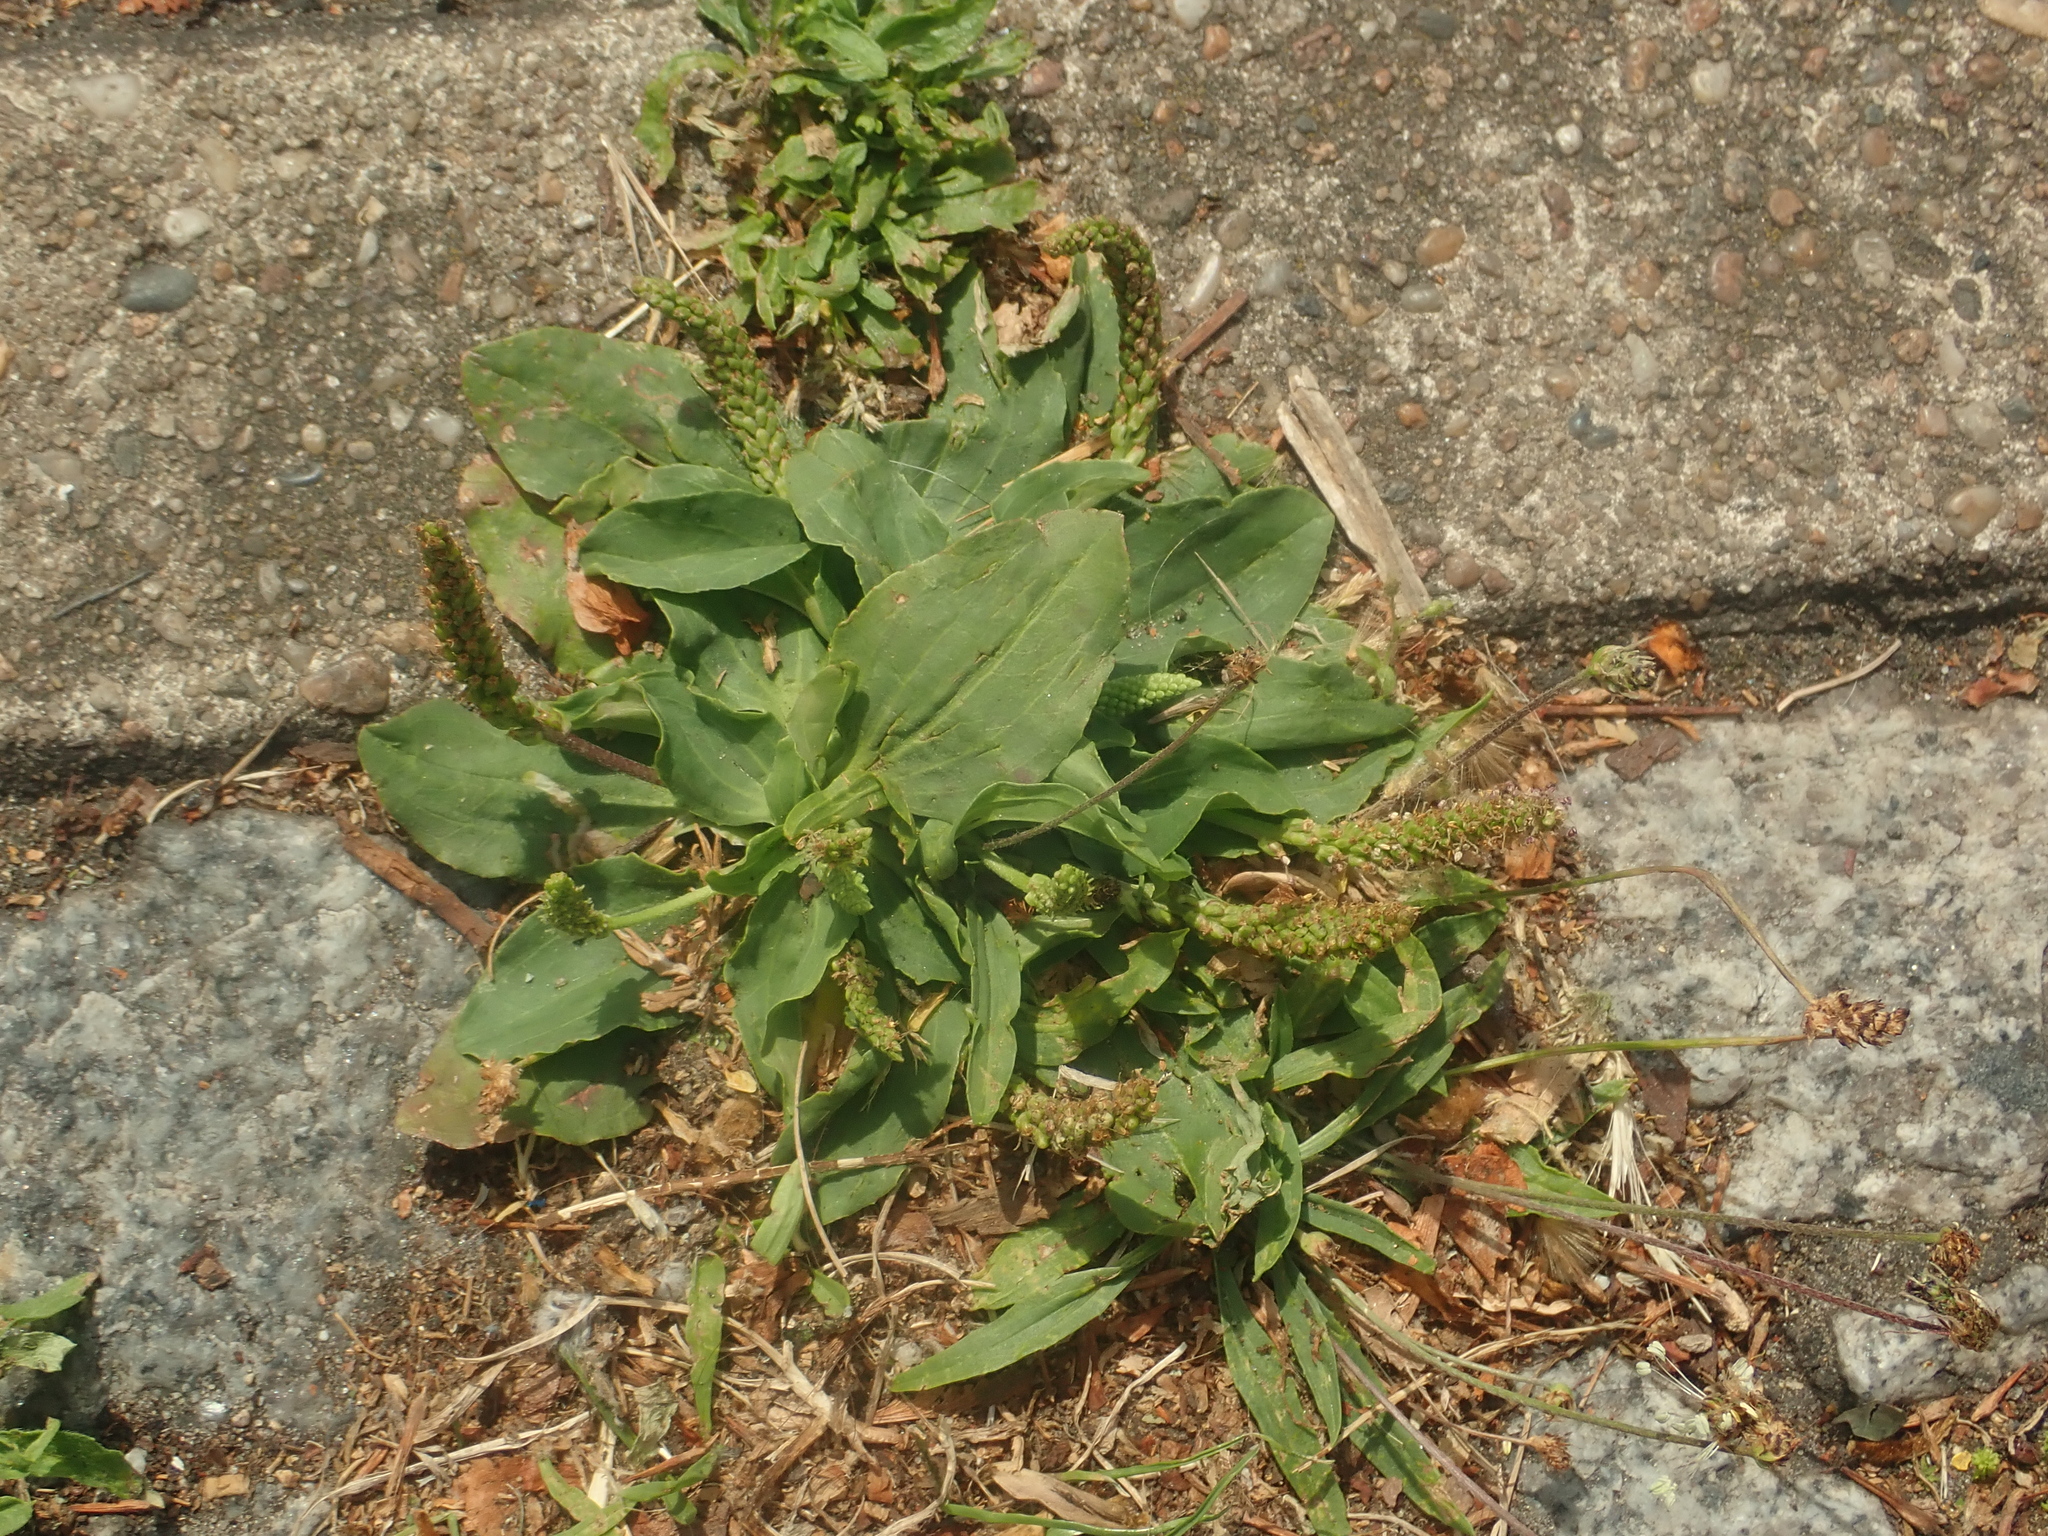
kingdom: Plantae
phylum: Tracheophyta
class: Magnoliopsida
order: Lamiales
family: Plantaginaceae
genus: Plantago
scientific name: Plantago major
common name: Common plantain
